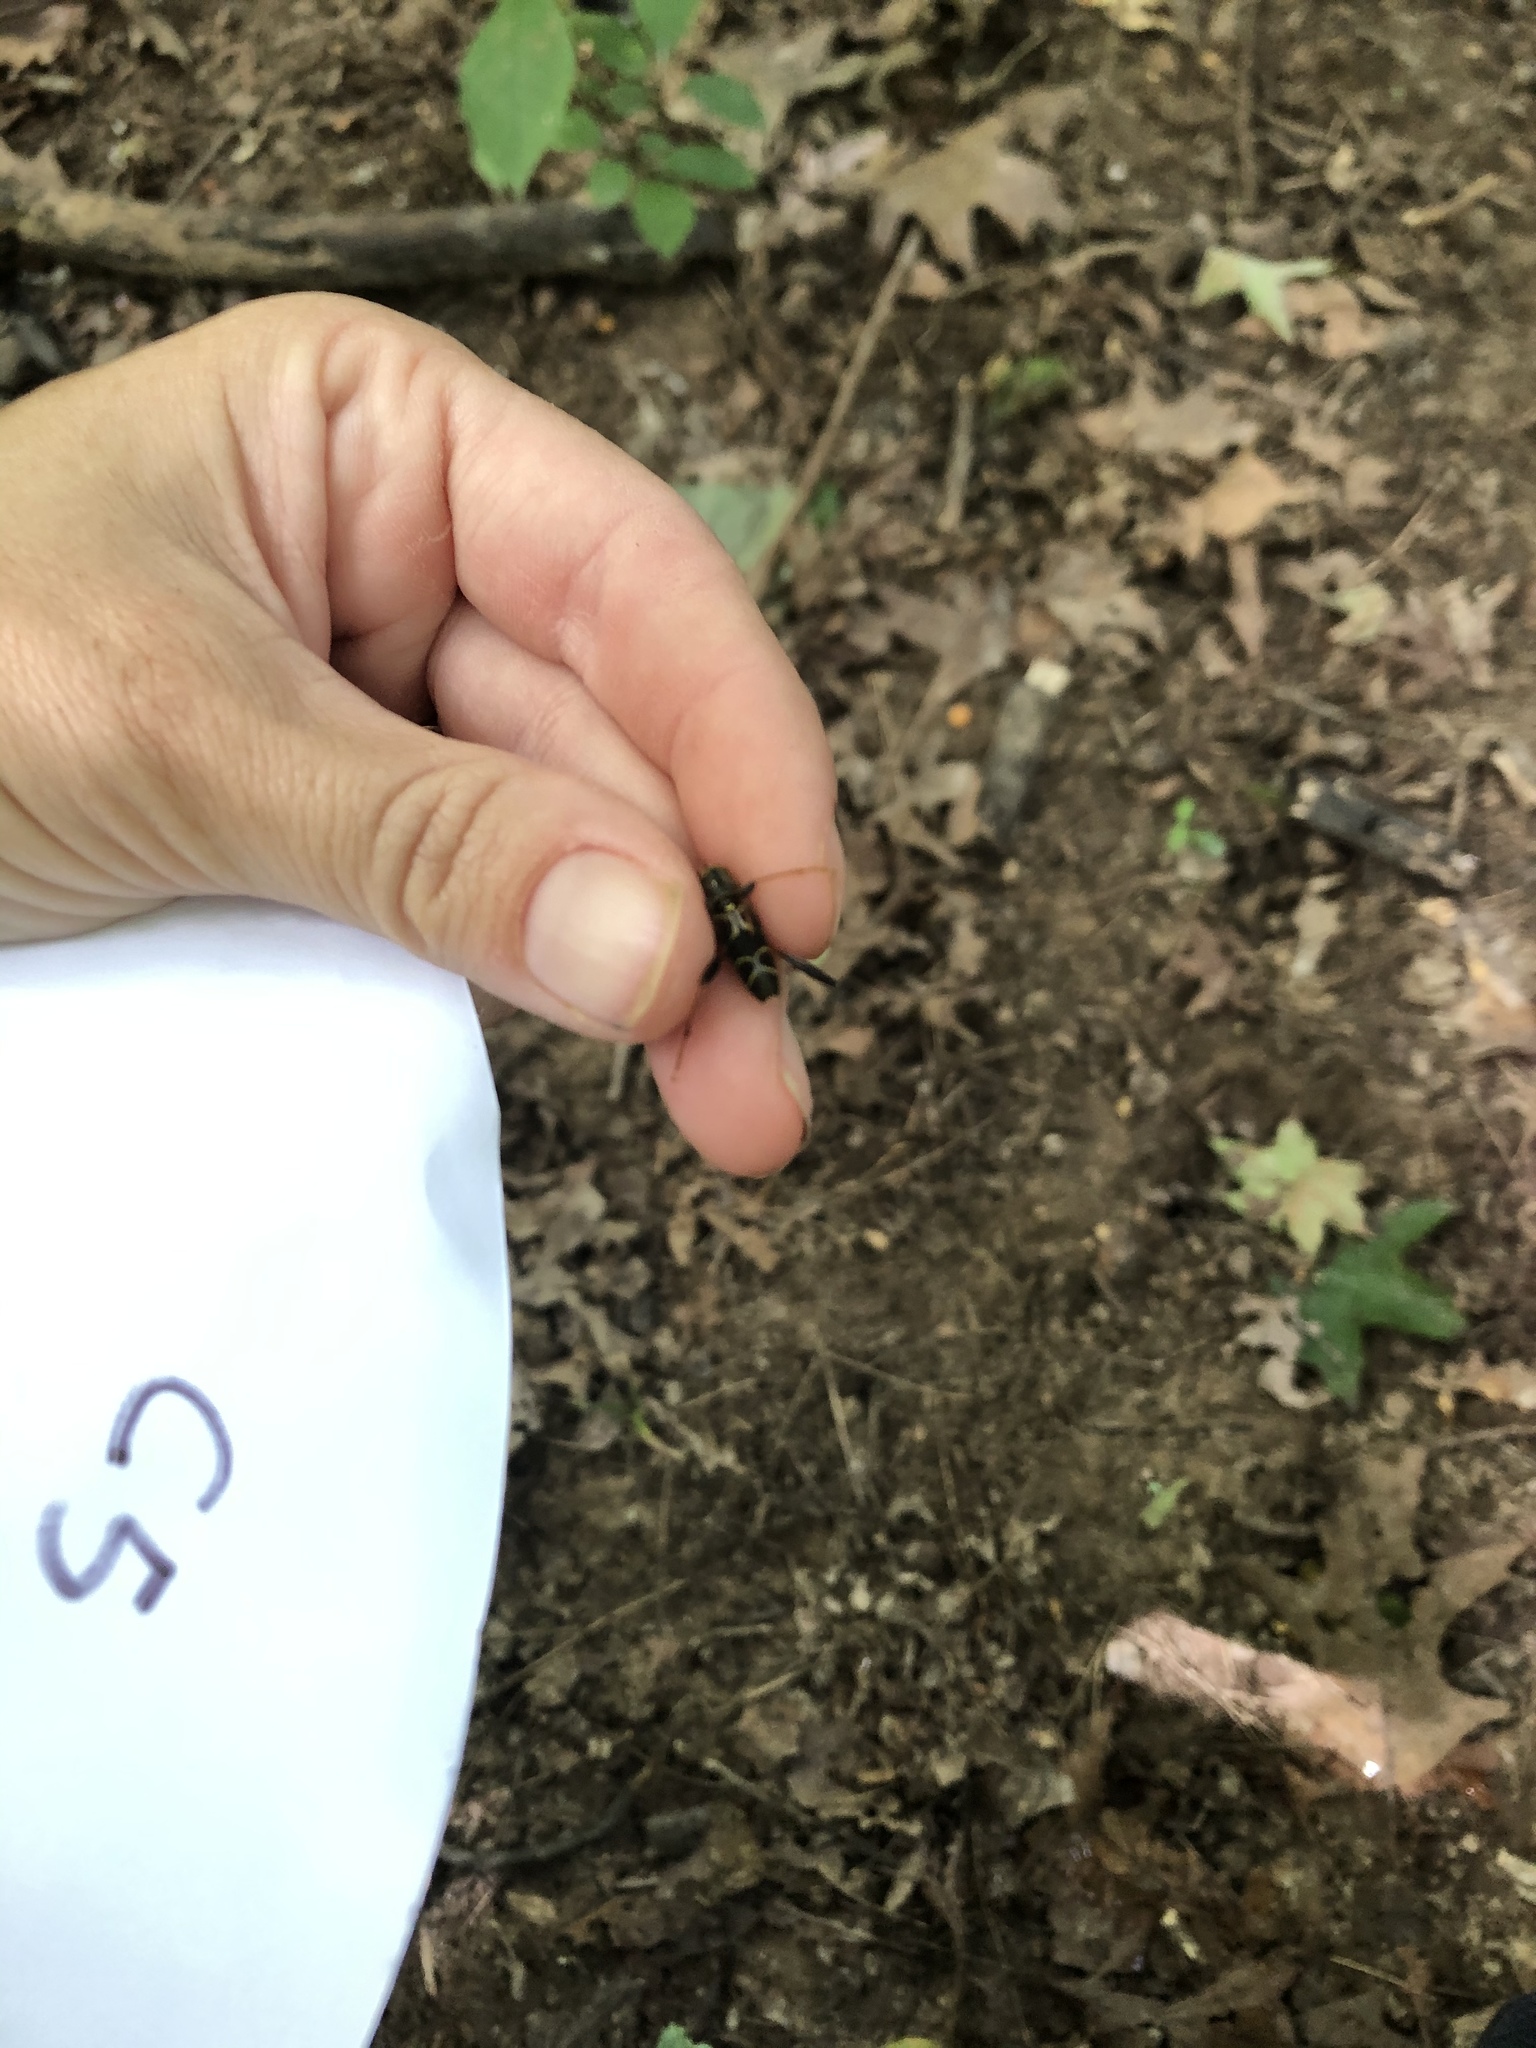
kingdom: Animalia
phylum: Arthropoda
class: Insecta
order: Coleoptera
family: Cerambycidae
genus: Neoclytus
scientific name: Neoclytus mucronatus
